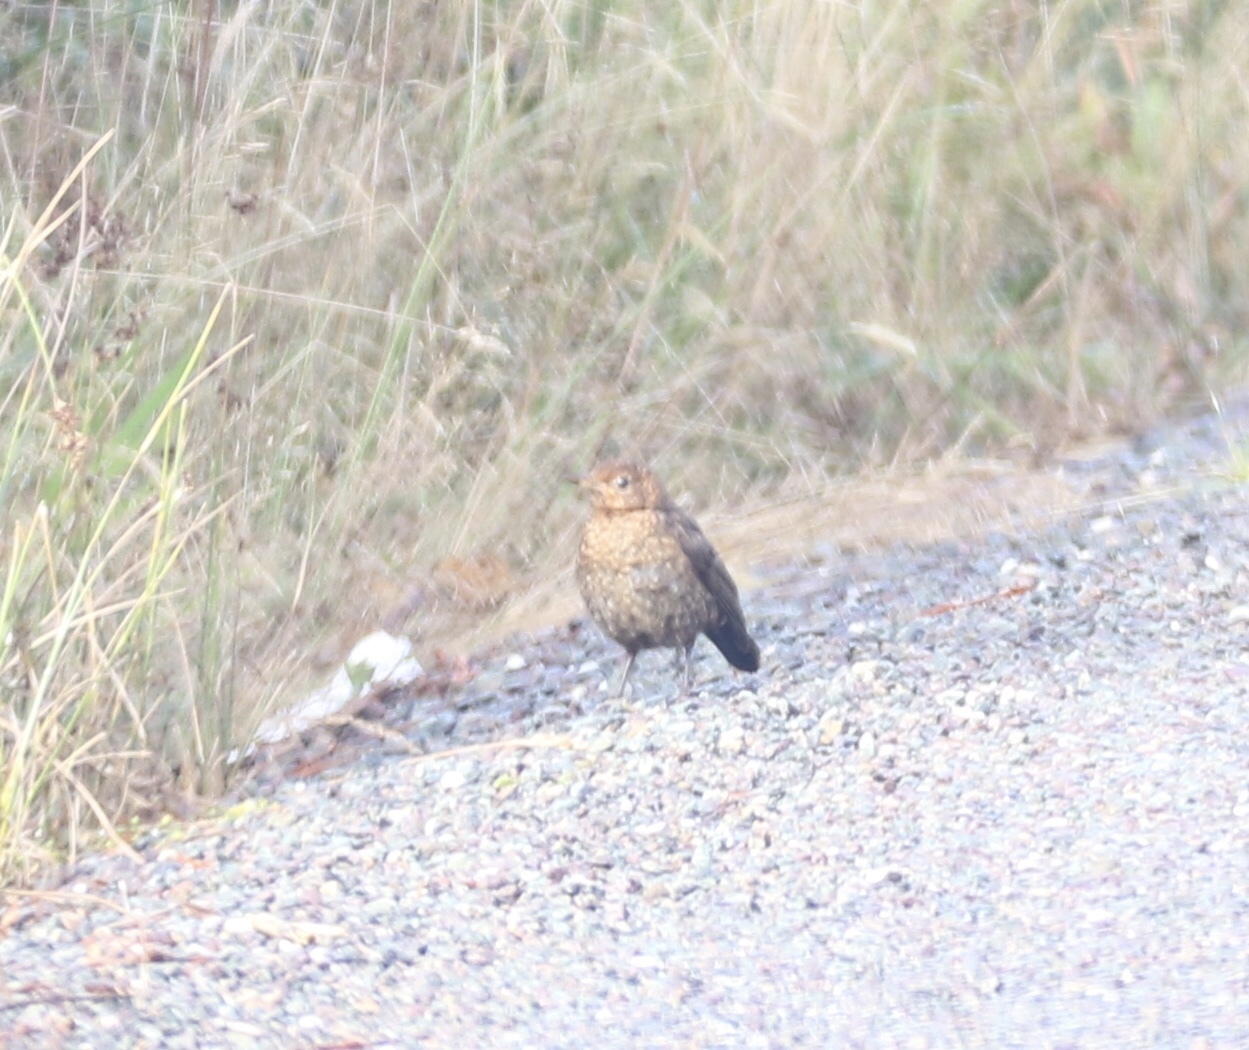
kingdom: Animalia
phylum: Chordata
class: Aves
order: Passeriformes
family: Turdidae
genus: Turdus
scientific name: Turdus merula
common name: Common blackbird
